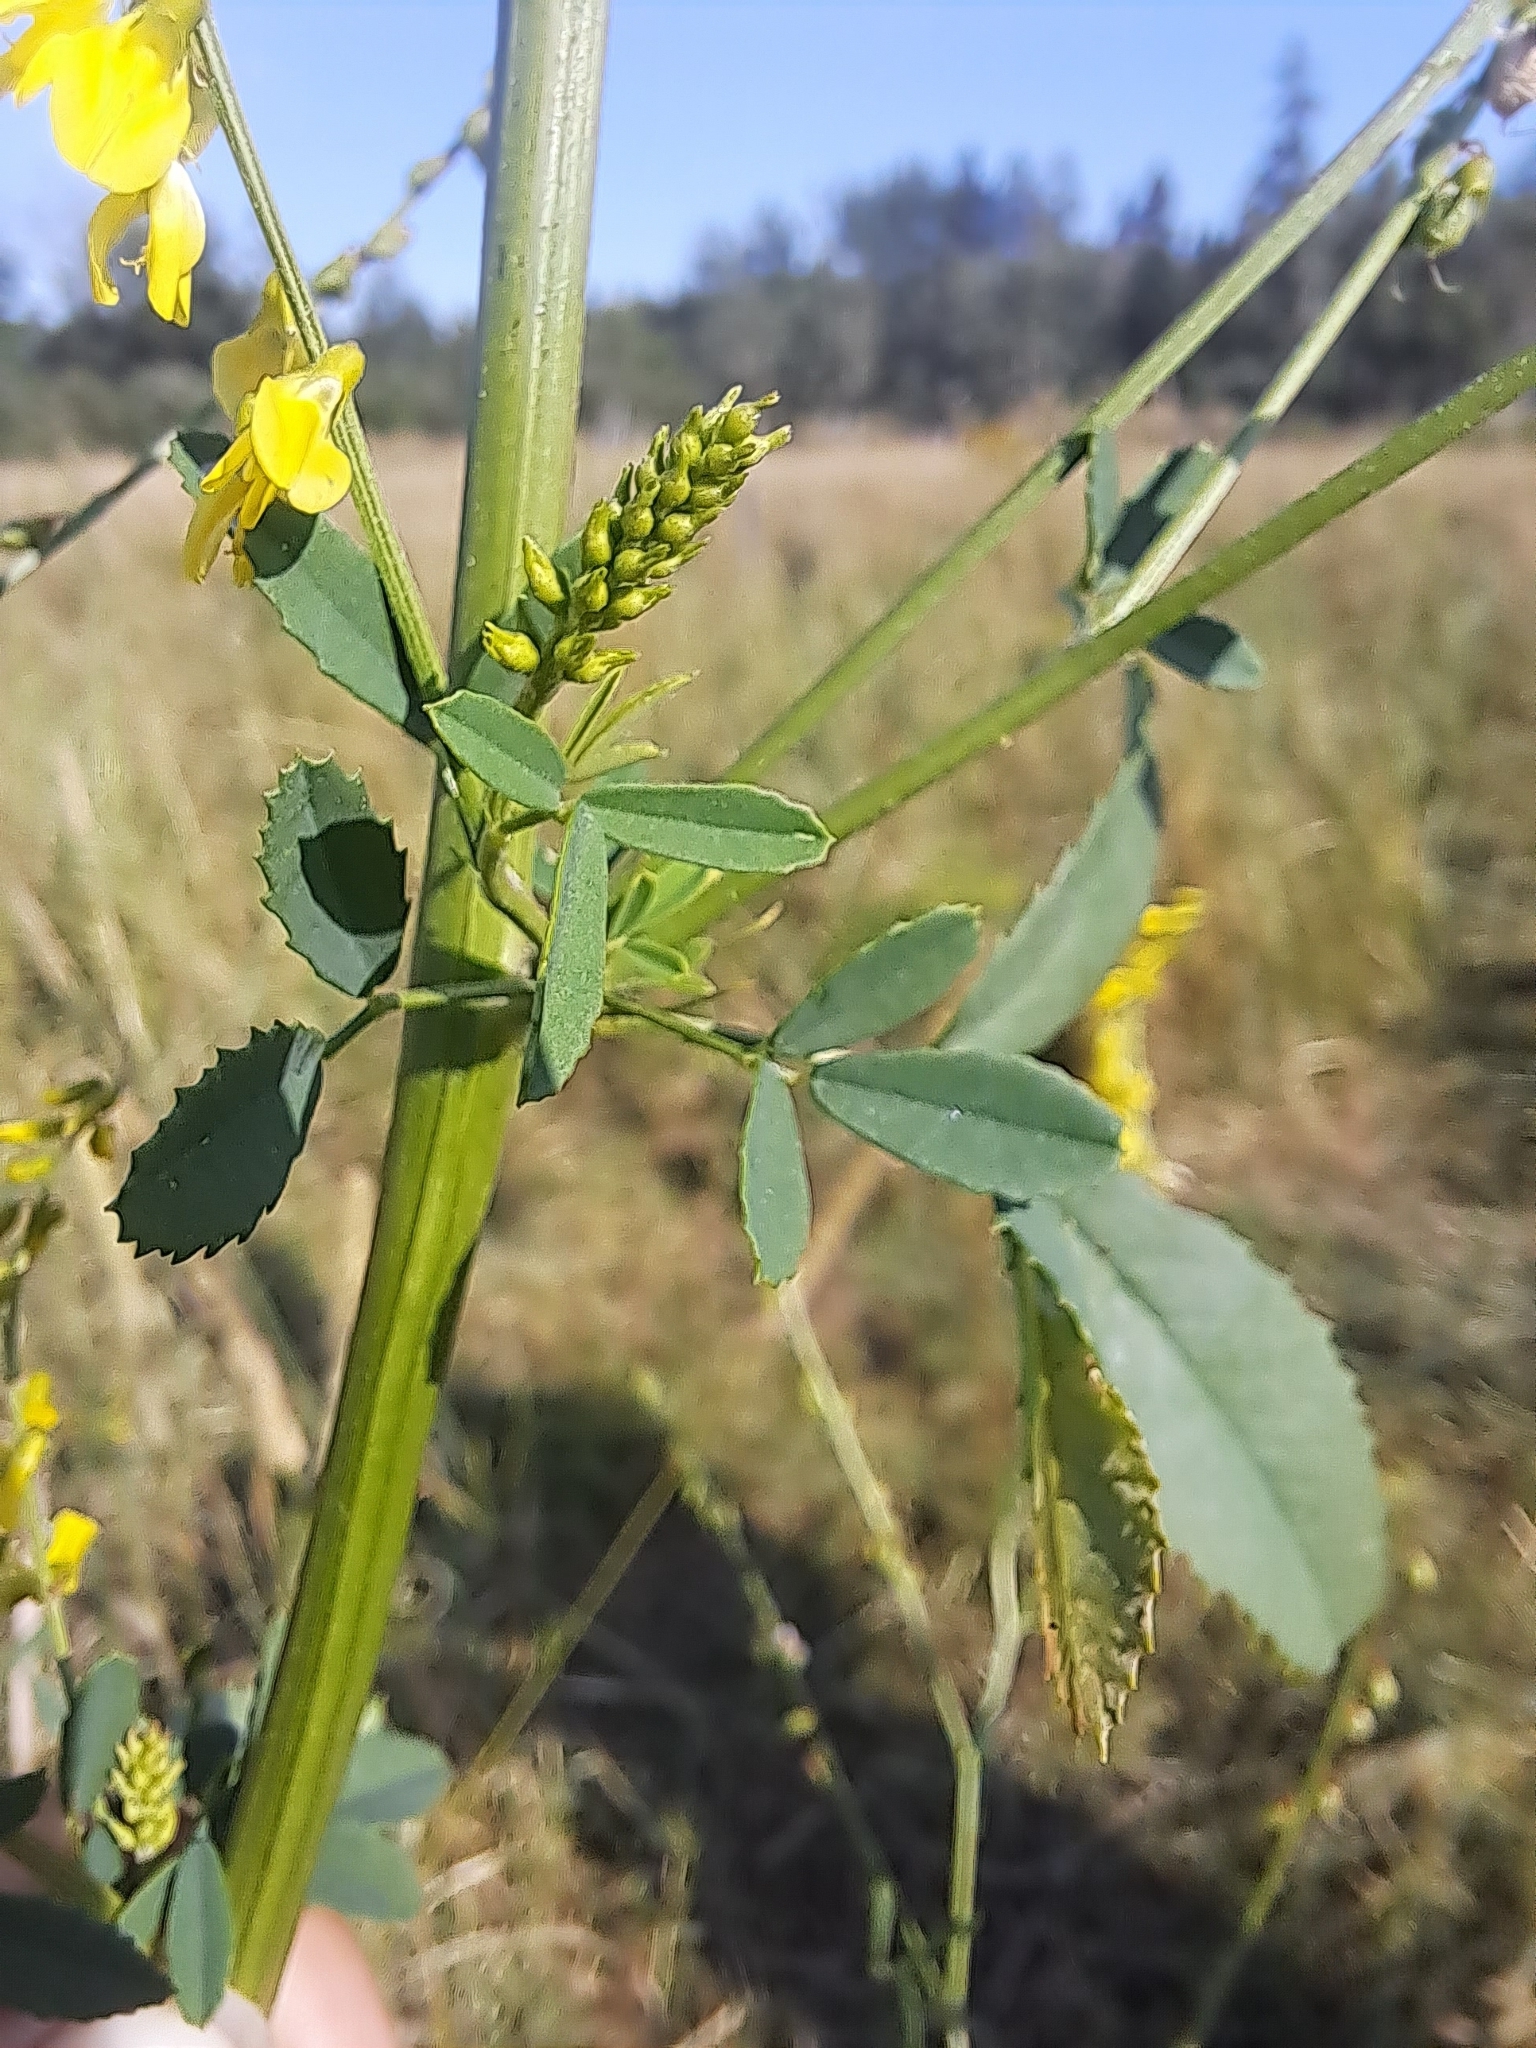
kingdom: Plantae
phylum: Tracheophyta
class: Magnoliopsida
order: Fabales
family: Fabaceae
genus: Melilotus
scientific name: Melilotus officinalis
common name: Sweetclover
